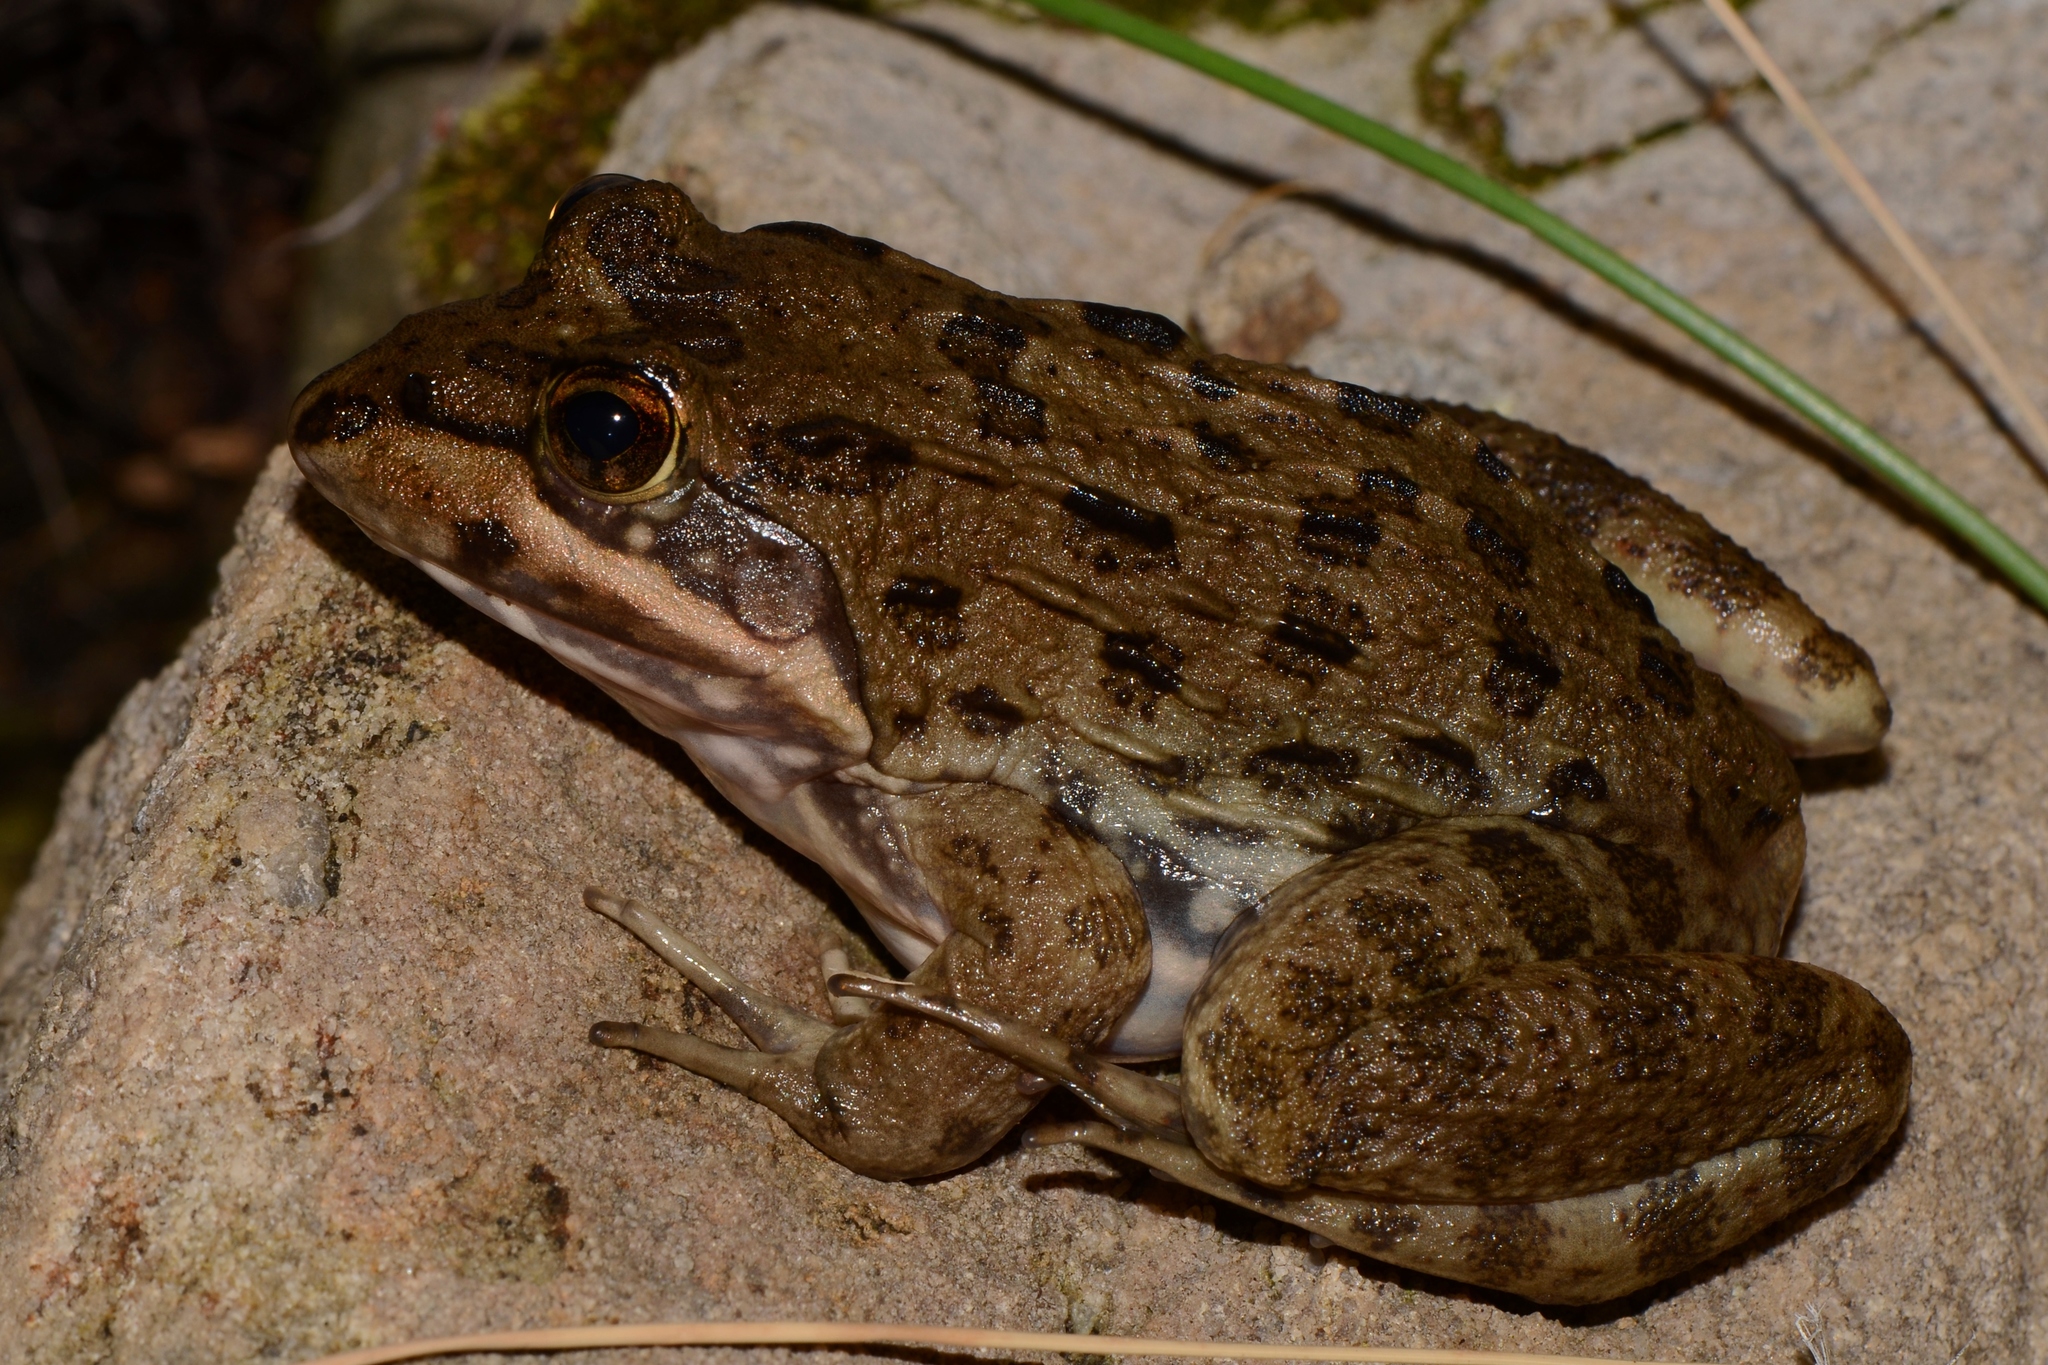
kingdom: Animalia
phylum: Chordata
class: Amphibia
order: Anura
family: Pyxicephalidae
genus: Amietia
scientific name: Amietia fuscigula
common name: Cape rana
